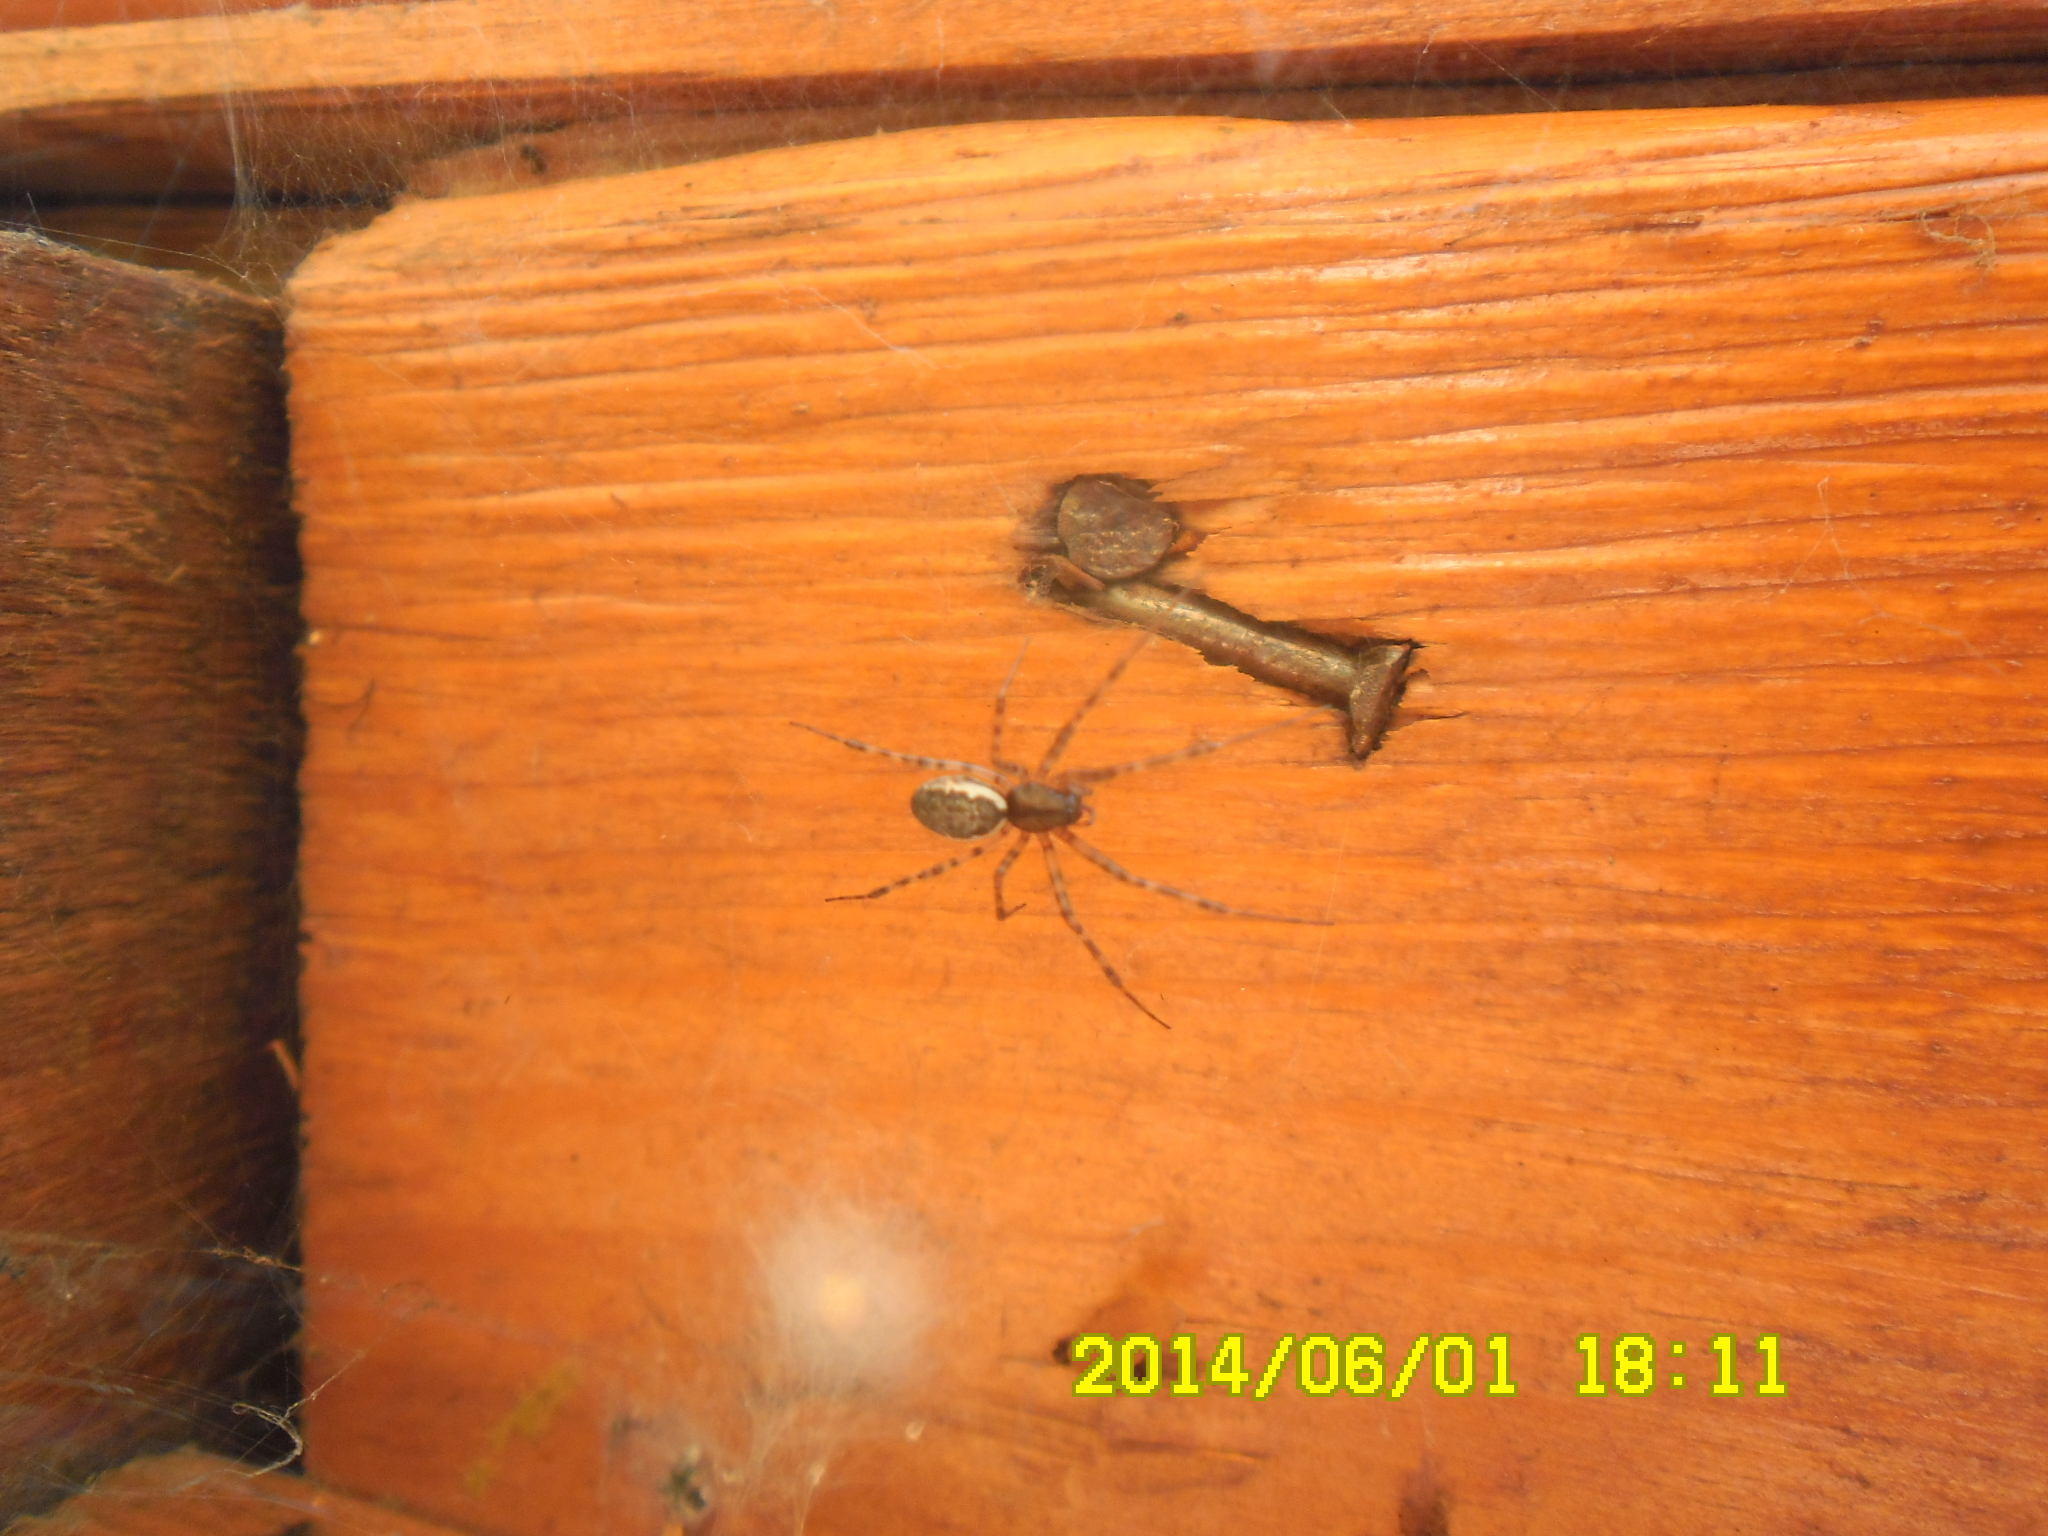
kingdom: Animalia
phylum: Arthropoda
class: Arachnida
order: Araneae
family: Linyphiidae
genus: Neriene
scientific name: Neriene montana
